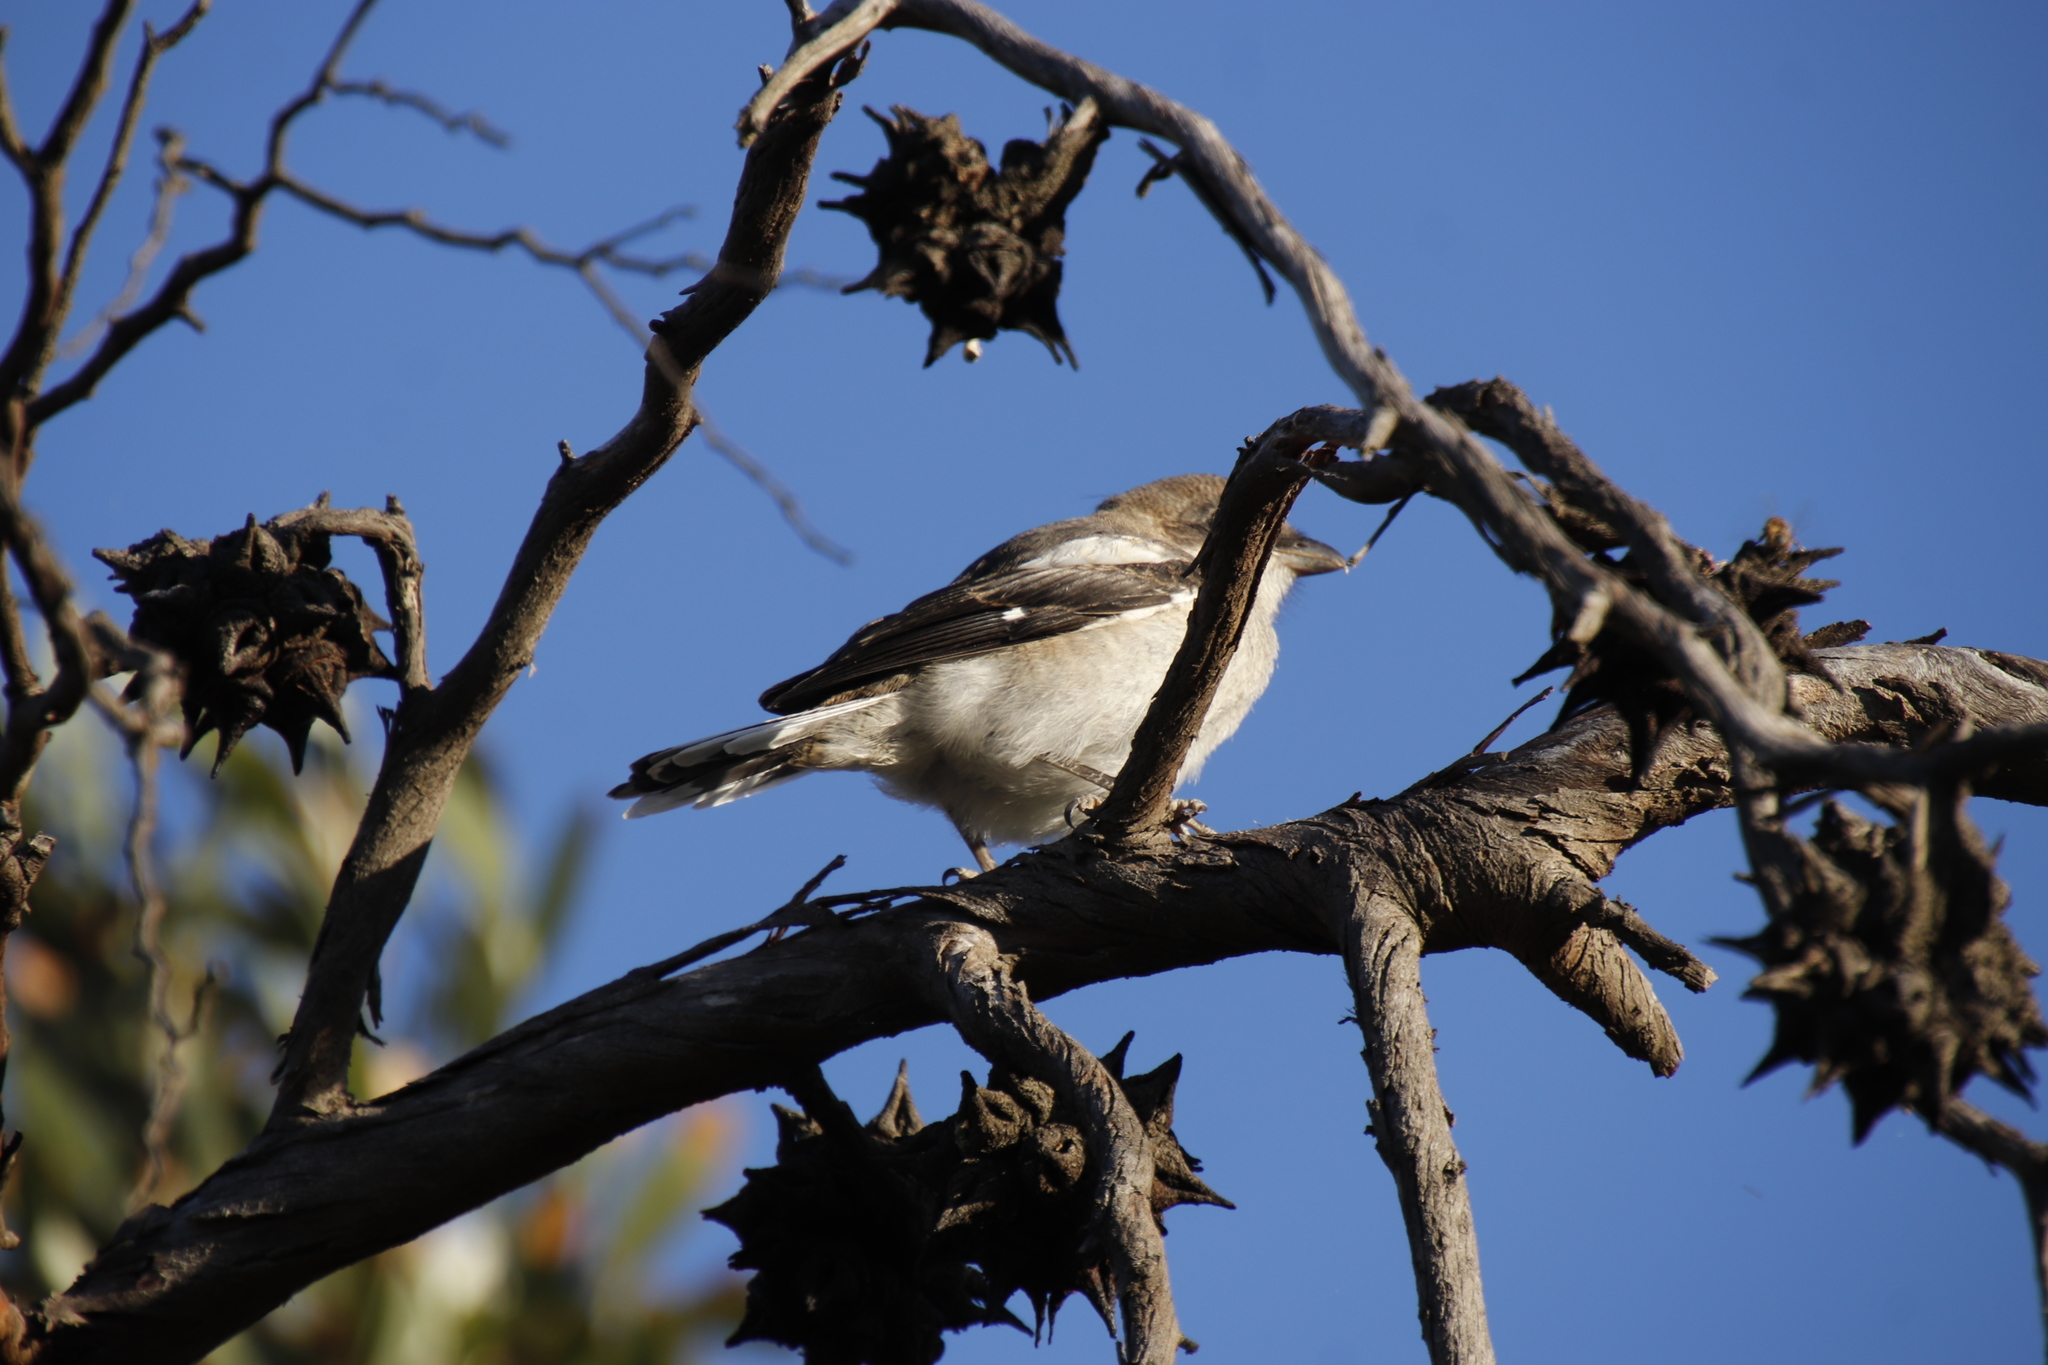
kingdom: Animalia
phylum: Chordata
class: Aves
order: Passeriformes
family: Laniidae
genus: Lanius
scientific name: Lanius collaris
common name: Southern fiscal
